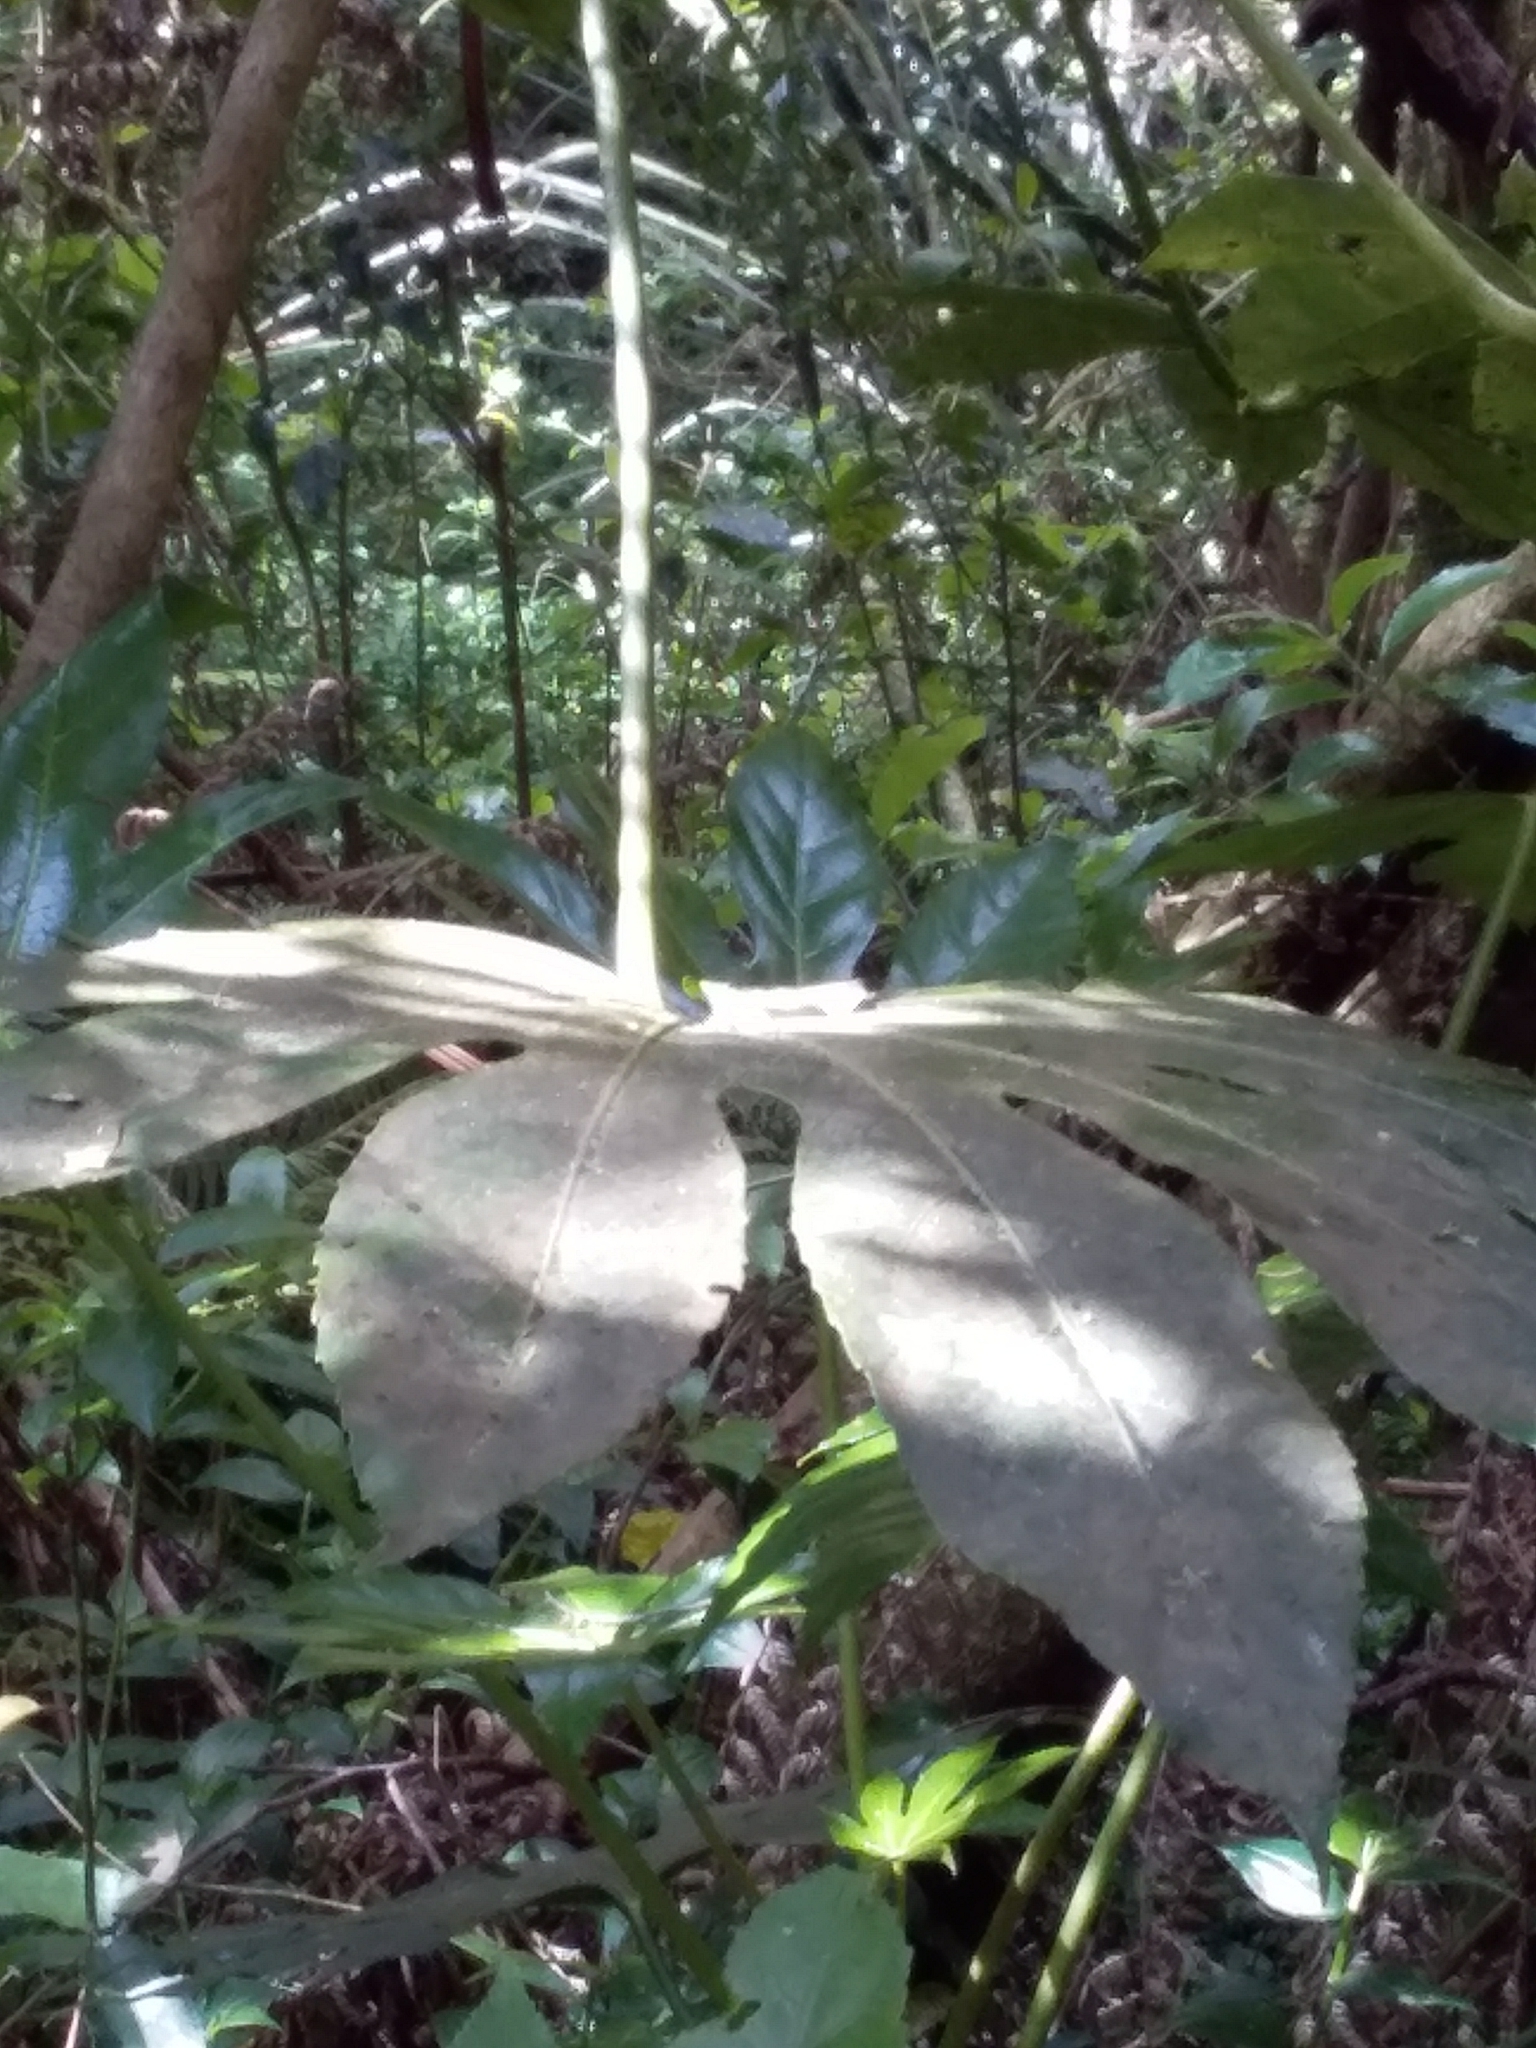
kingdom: Plantae
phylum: Tracheophyta
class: Magnoliopsida
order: Apiales
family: Araliaceae
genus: Schefflera
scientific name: Schefflera digitata
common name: Pate
